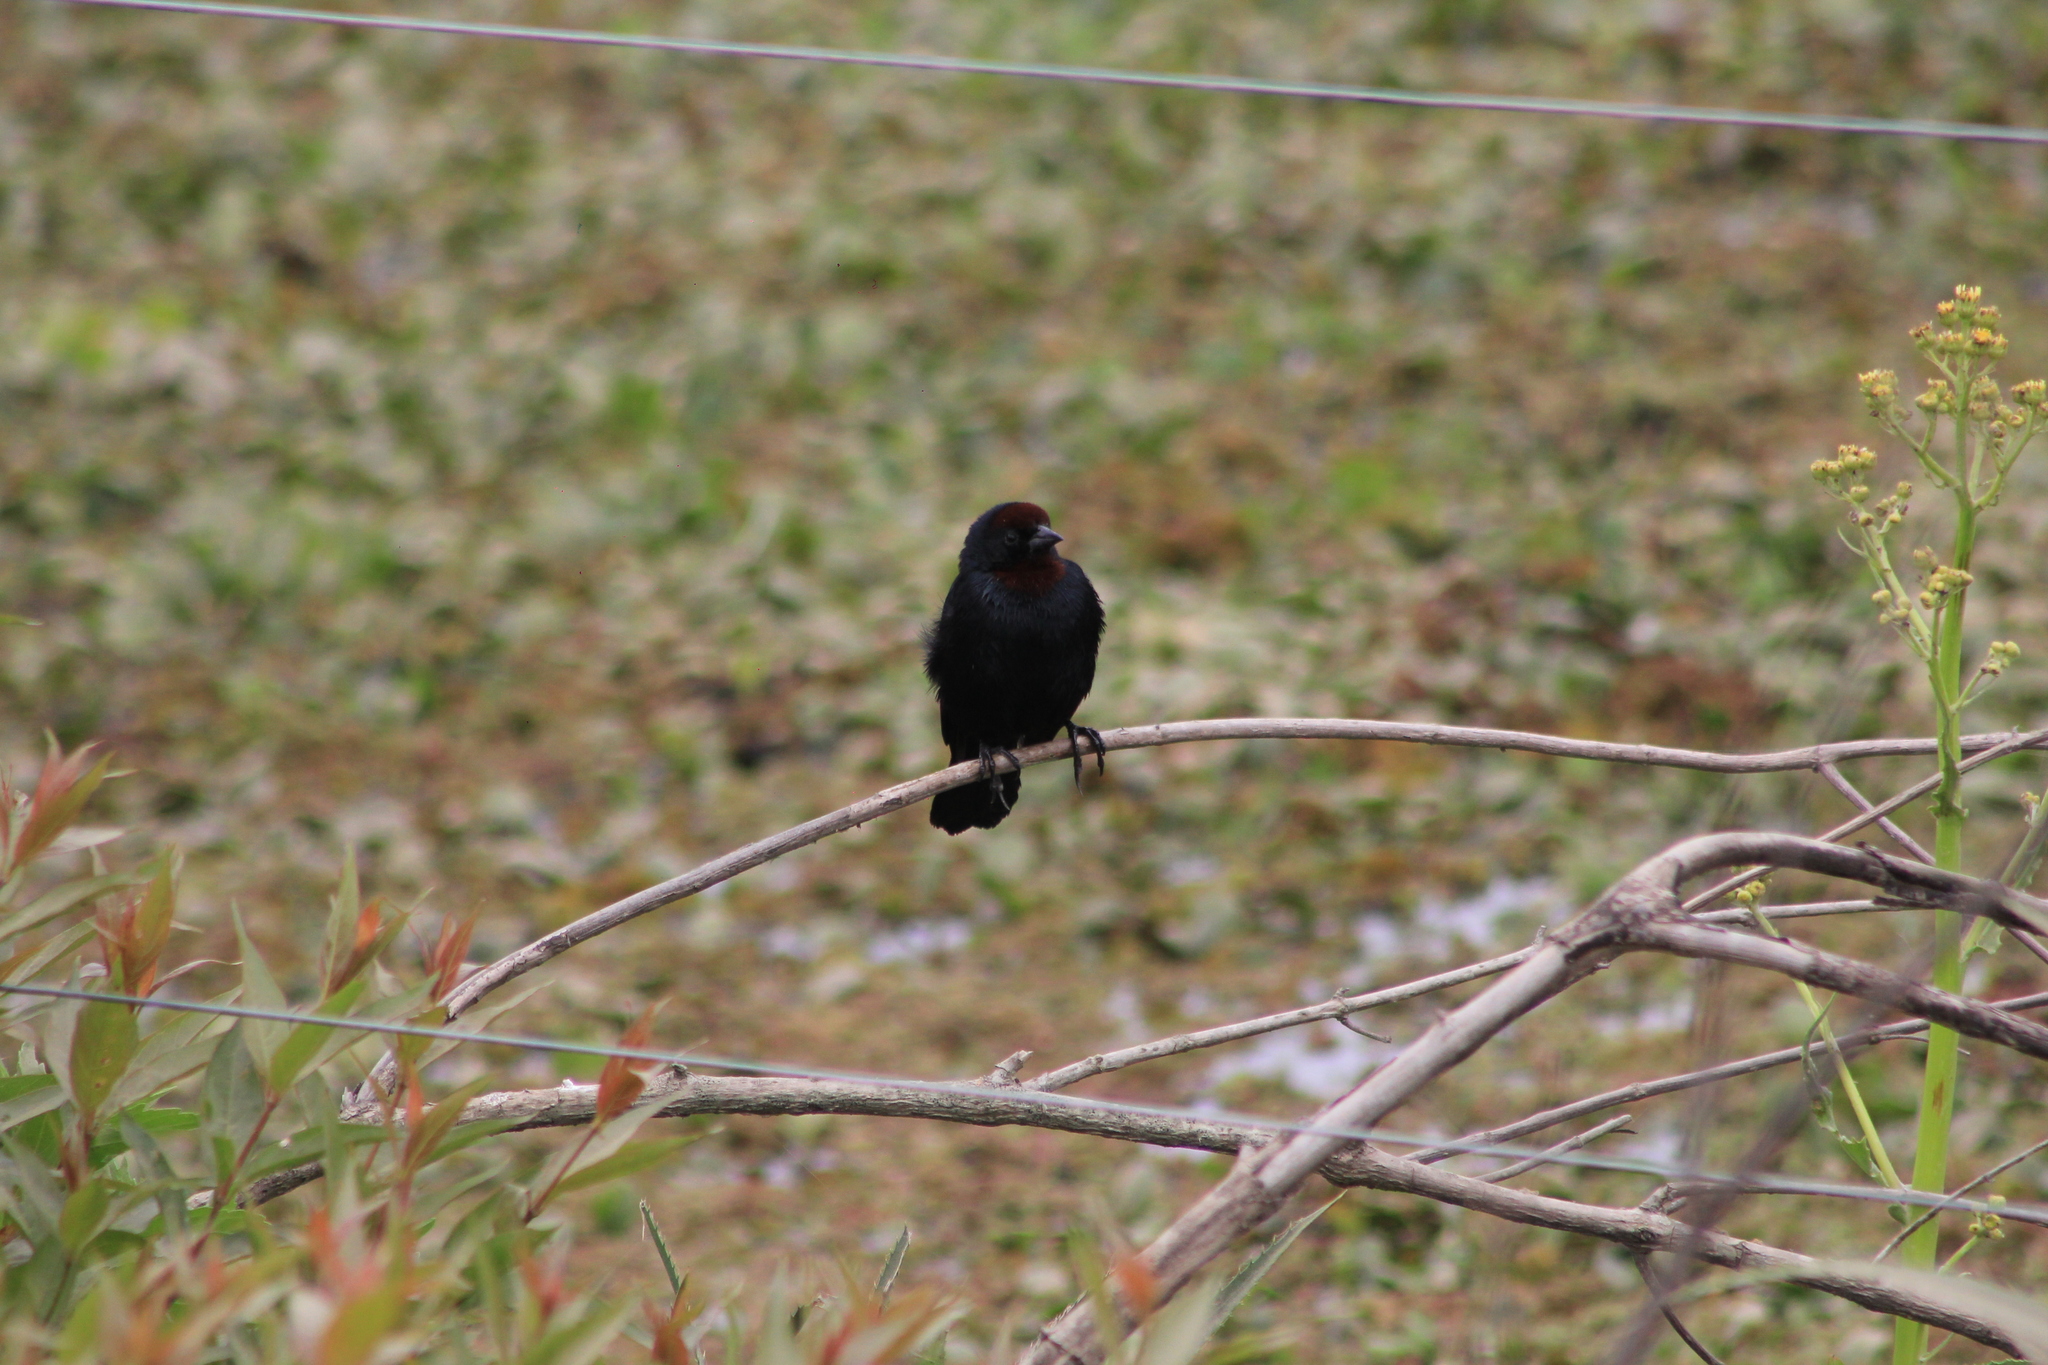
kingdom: Animalia
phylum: Chordata
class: Aves
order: Passeriformes
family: Icteridae
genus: Chrysomus
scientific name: Chrysomus ruficapillus
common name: Chestnut-capped blackbird
